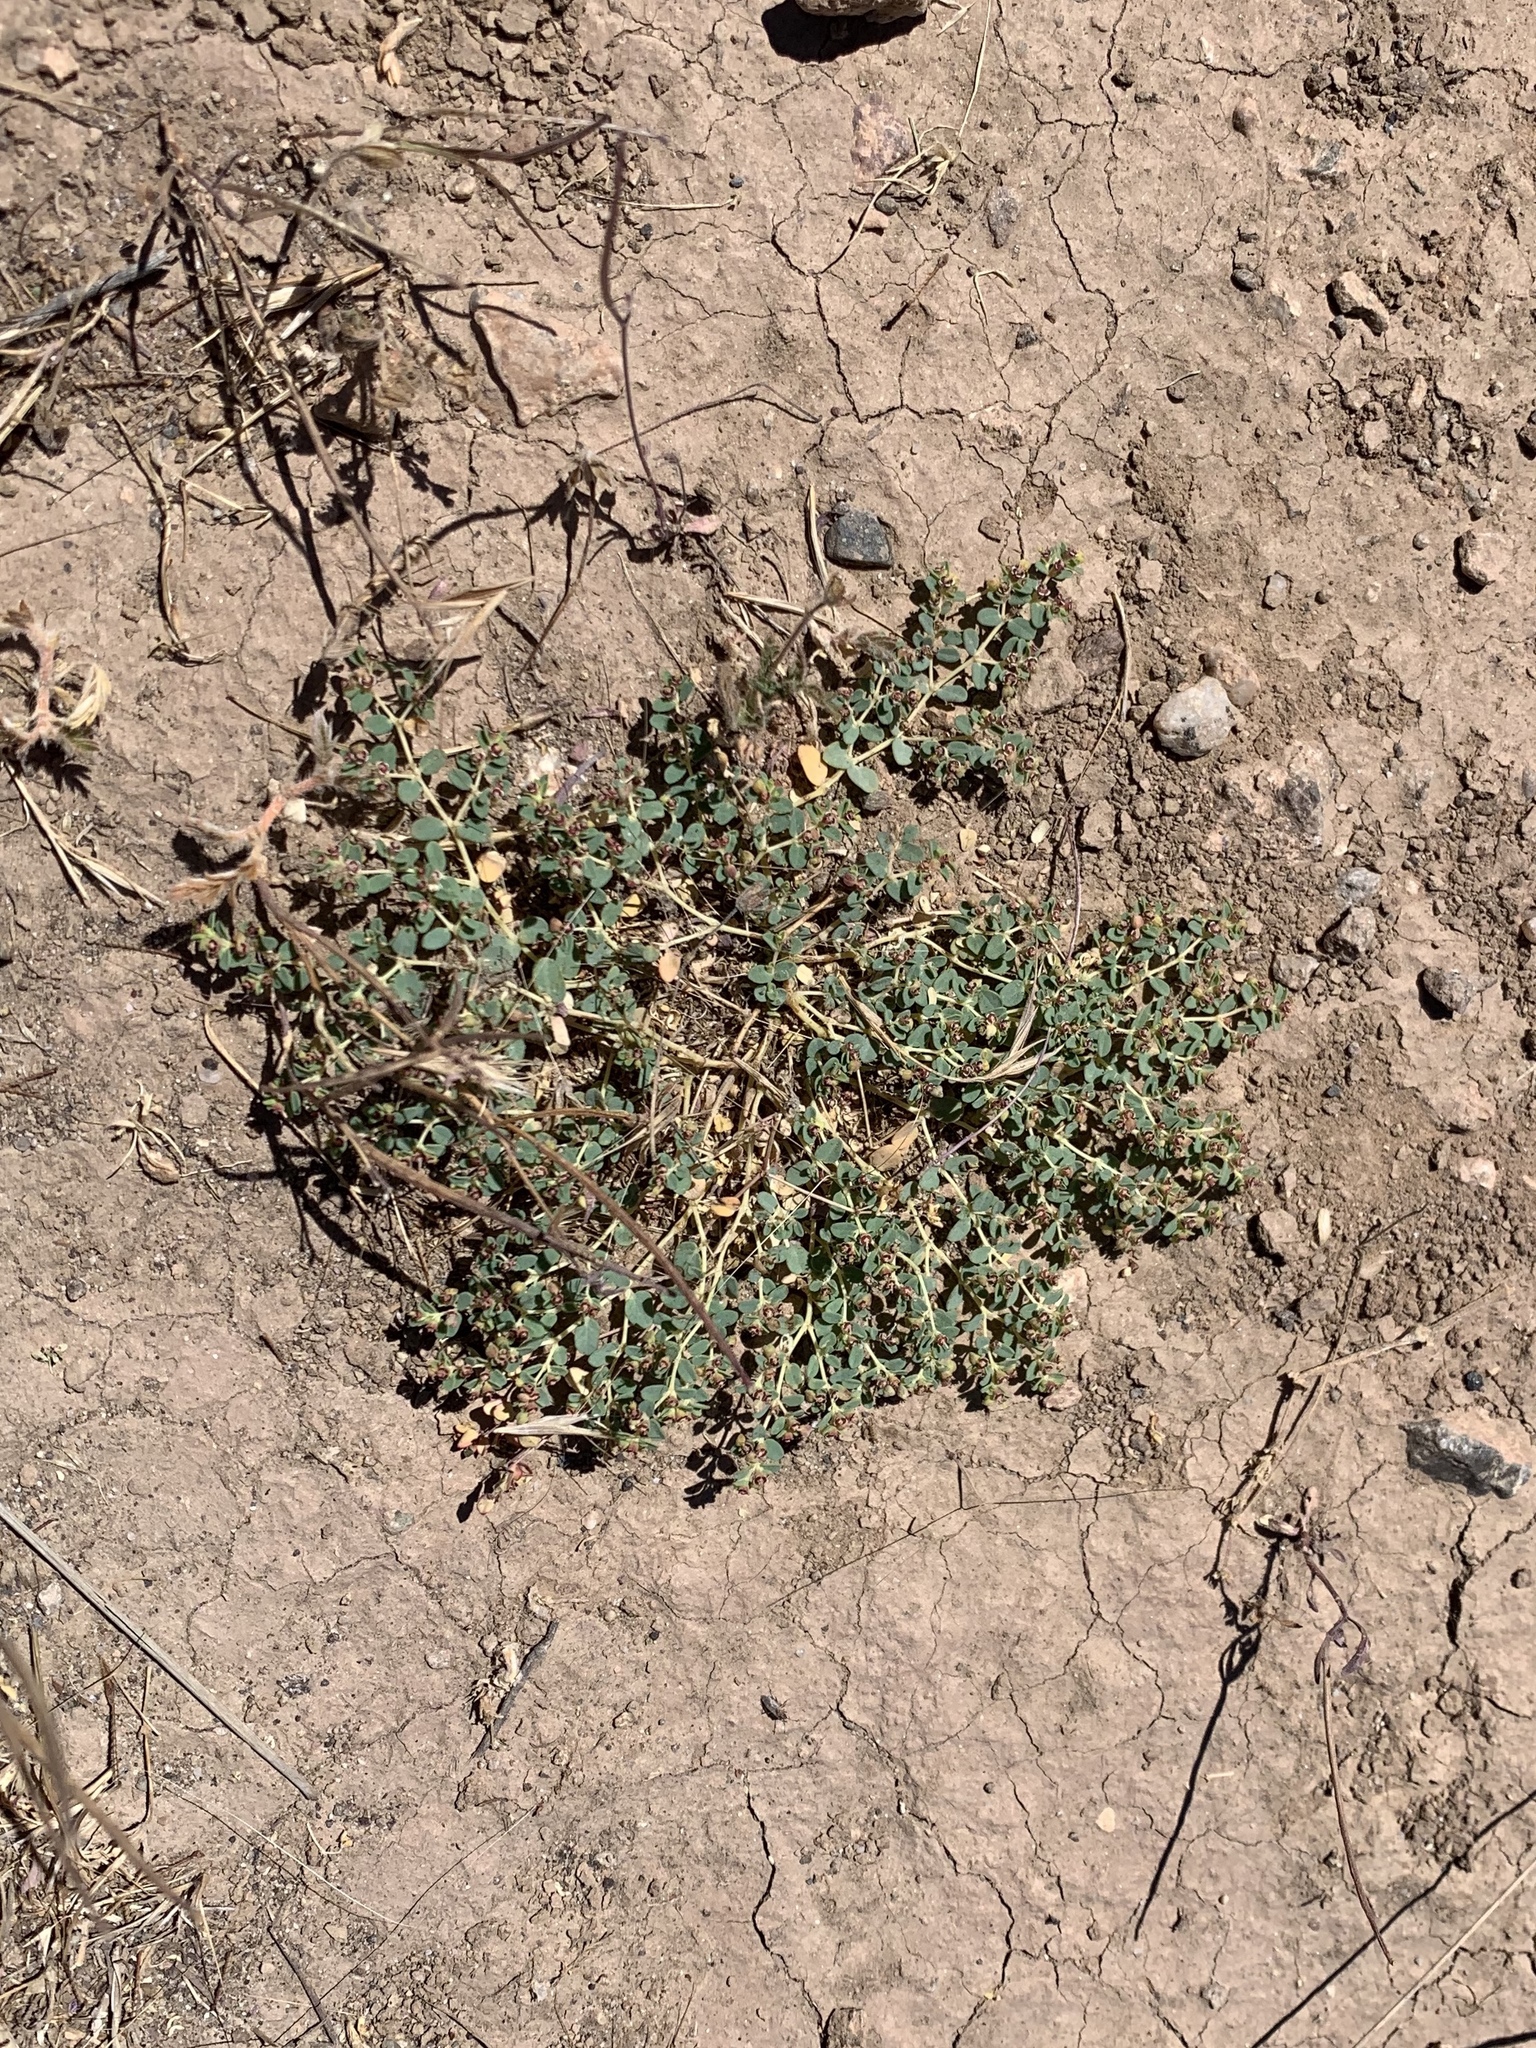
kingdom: Plantae
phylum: Tracheophyta
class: Magnoliopsida
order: Malpighiales
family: Euphorbiaceae
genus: Euphorbia
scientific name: Euphorbia polycarpa
